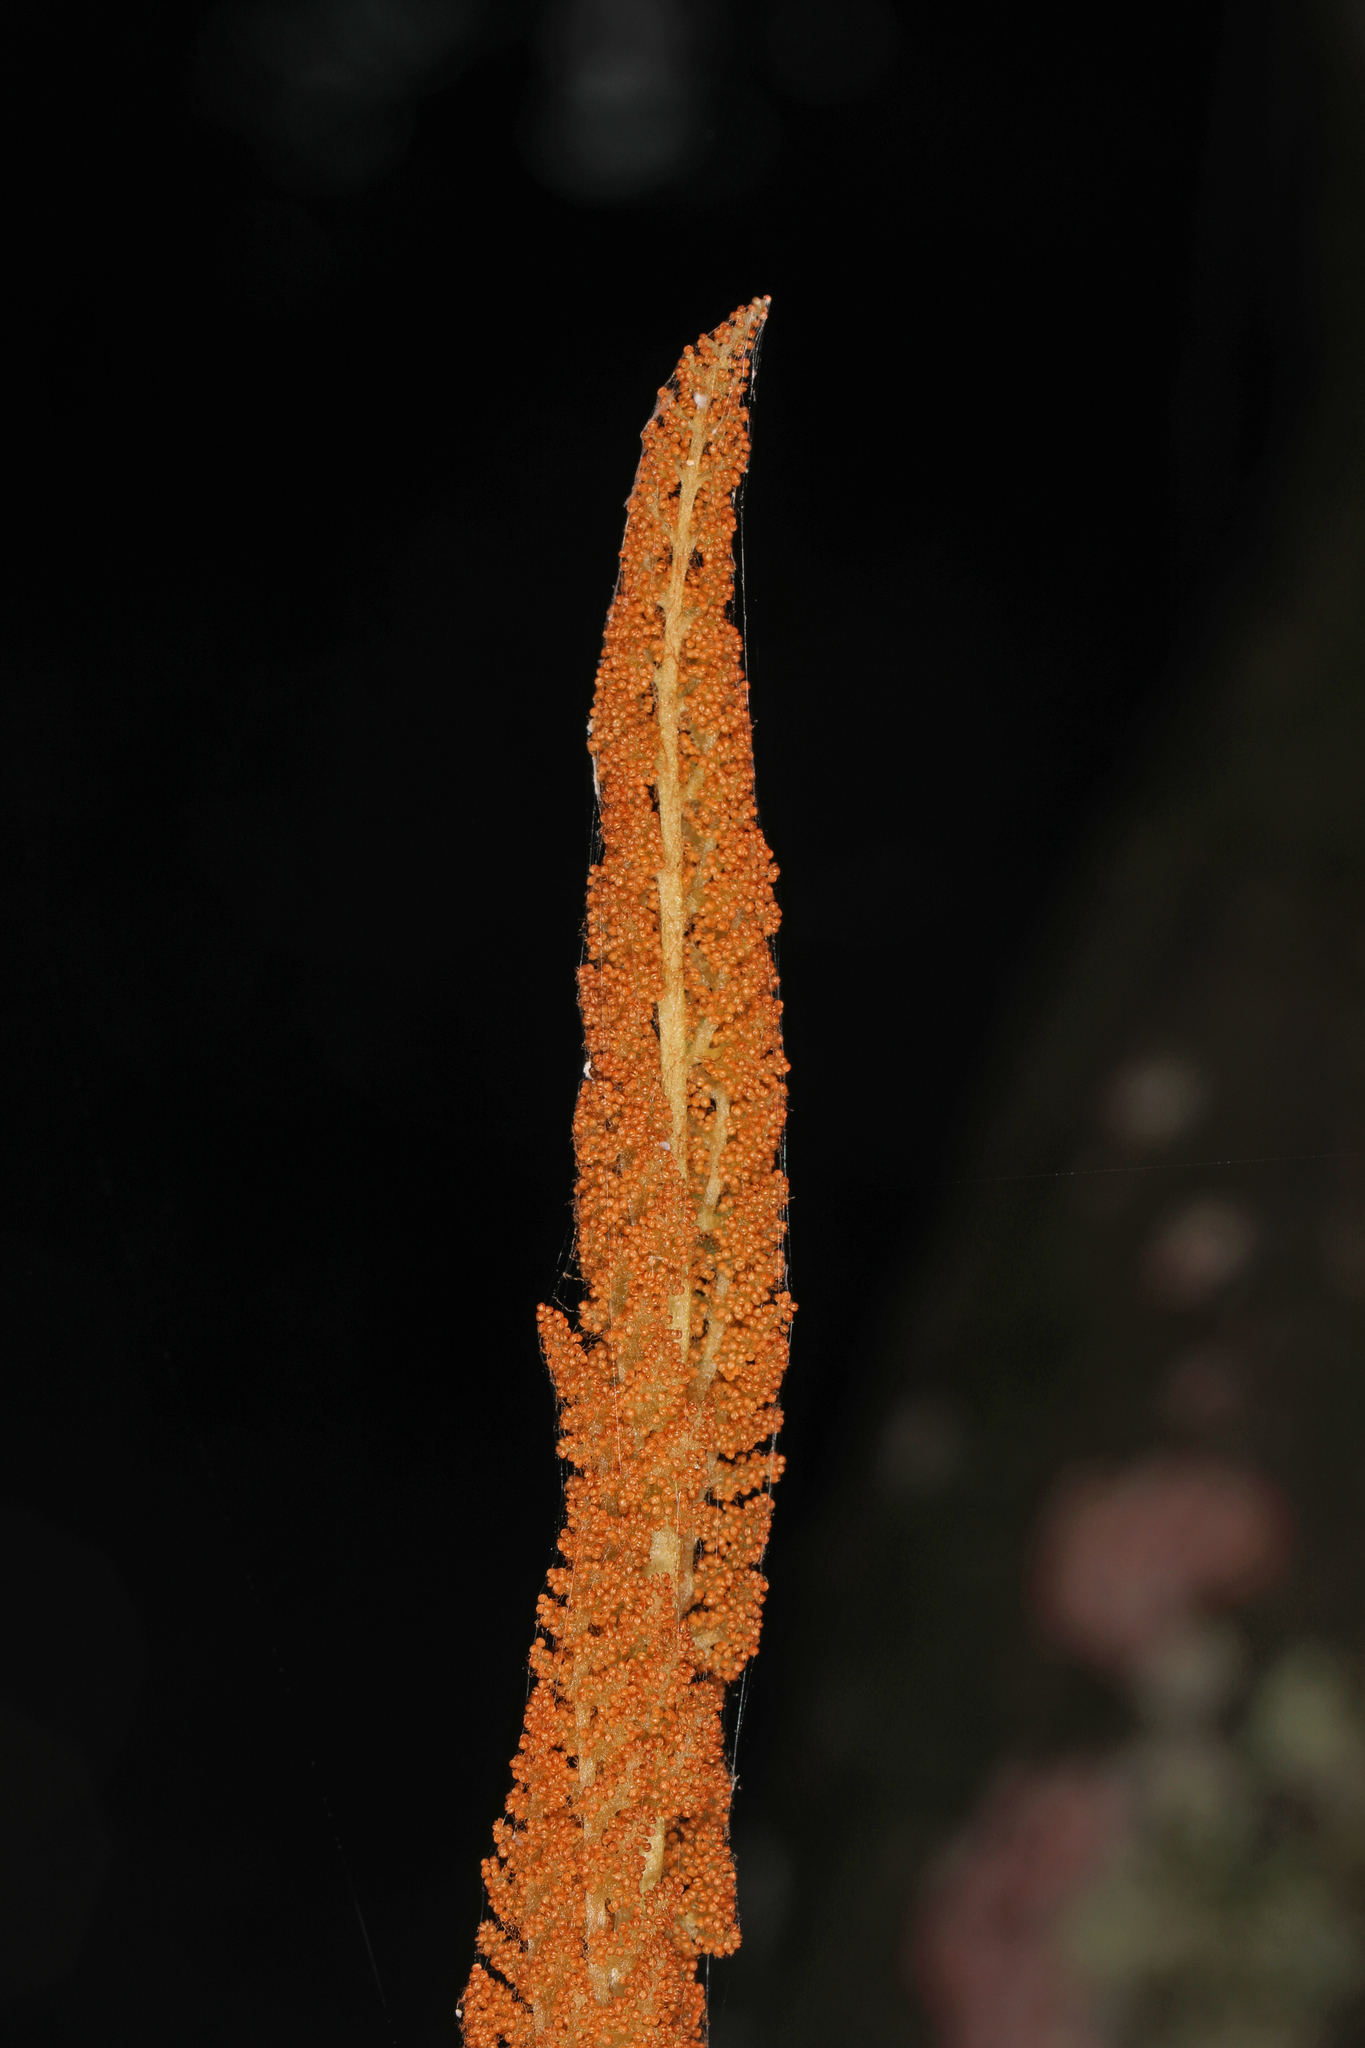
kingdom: Plantae
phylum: Tracheophyta
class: Polypodiopsida
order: Osmundales
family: Osmundaceae
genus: Osmundastrum
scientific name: Osmundastrum cinnamomeum
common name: Cinnamon fern
